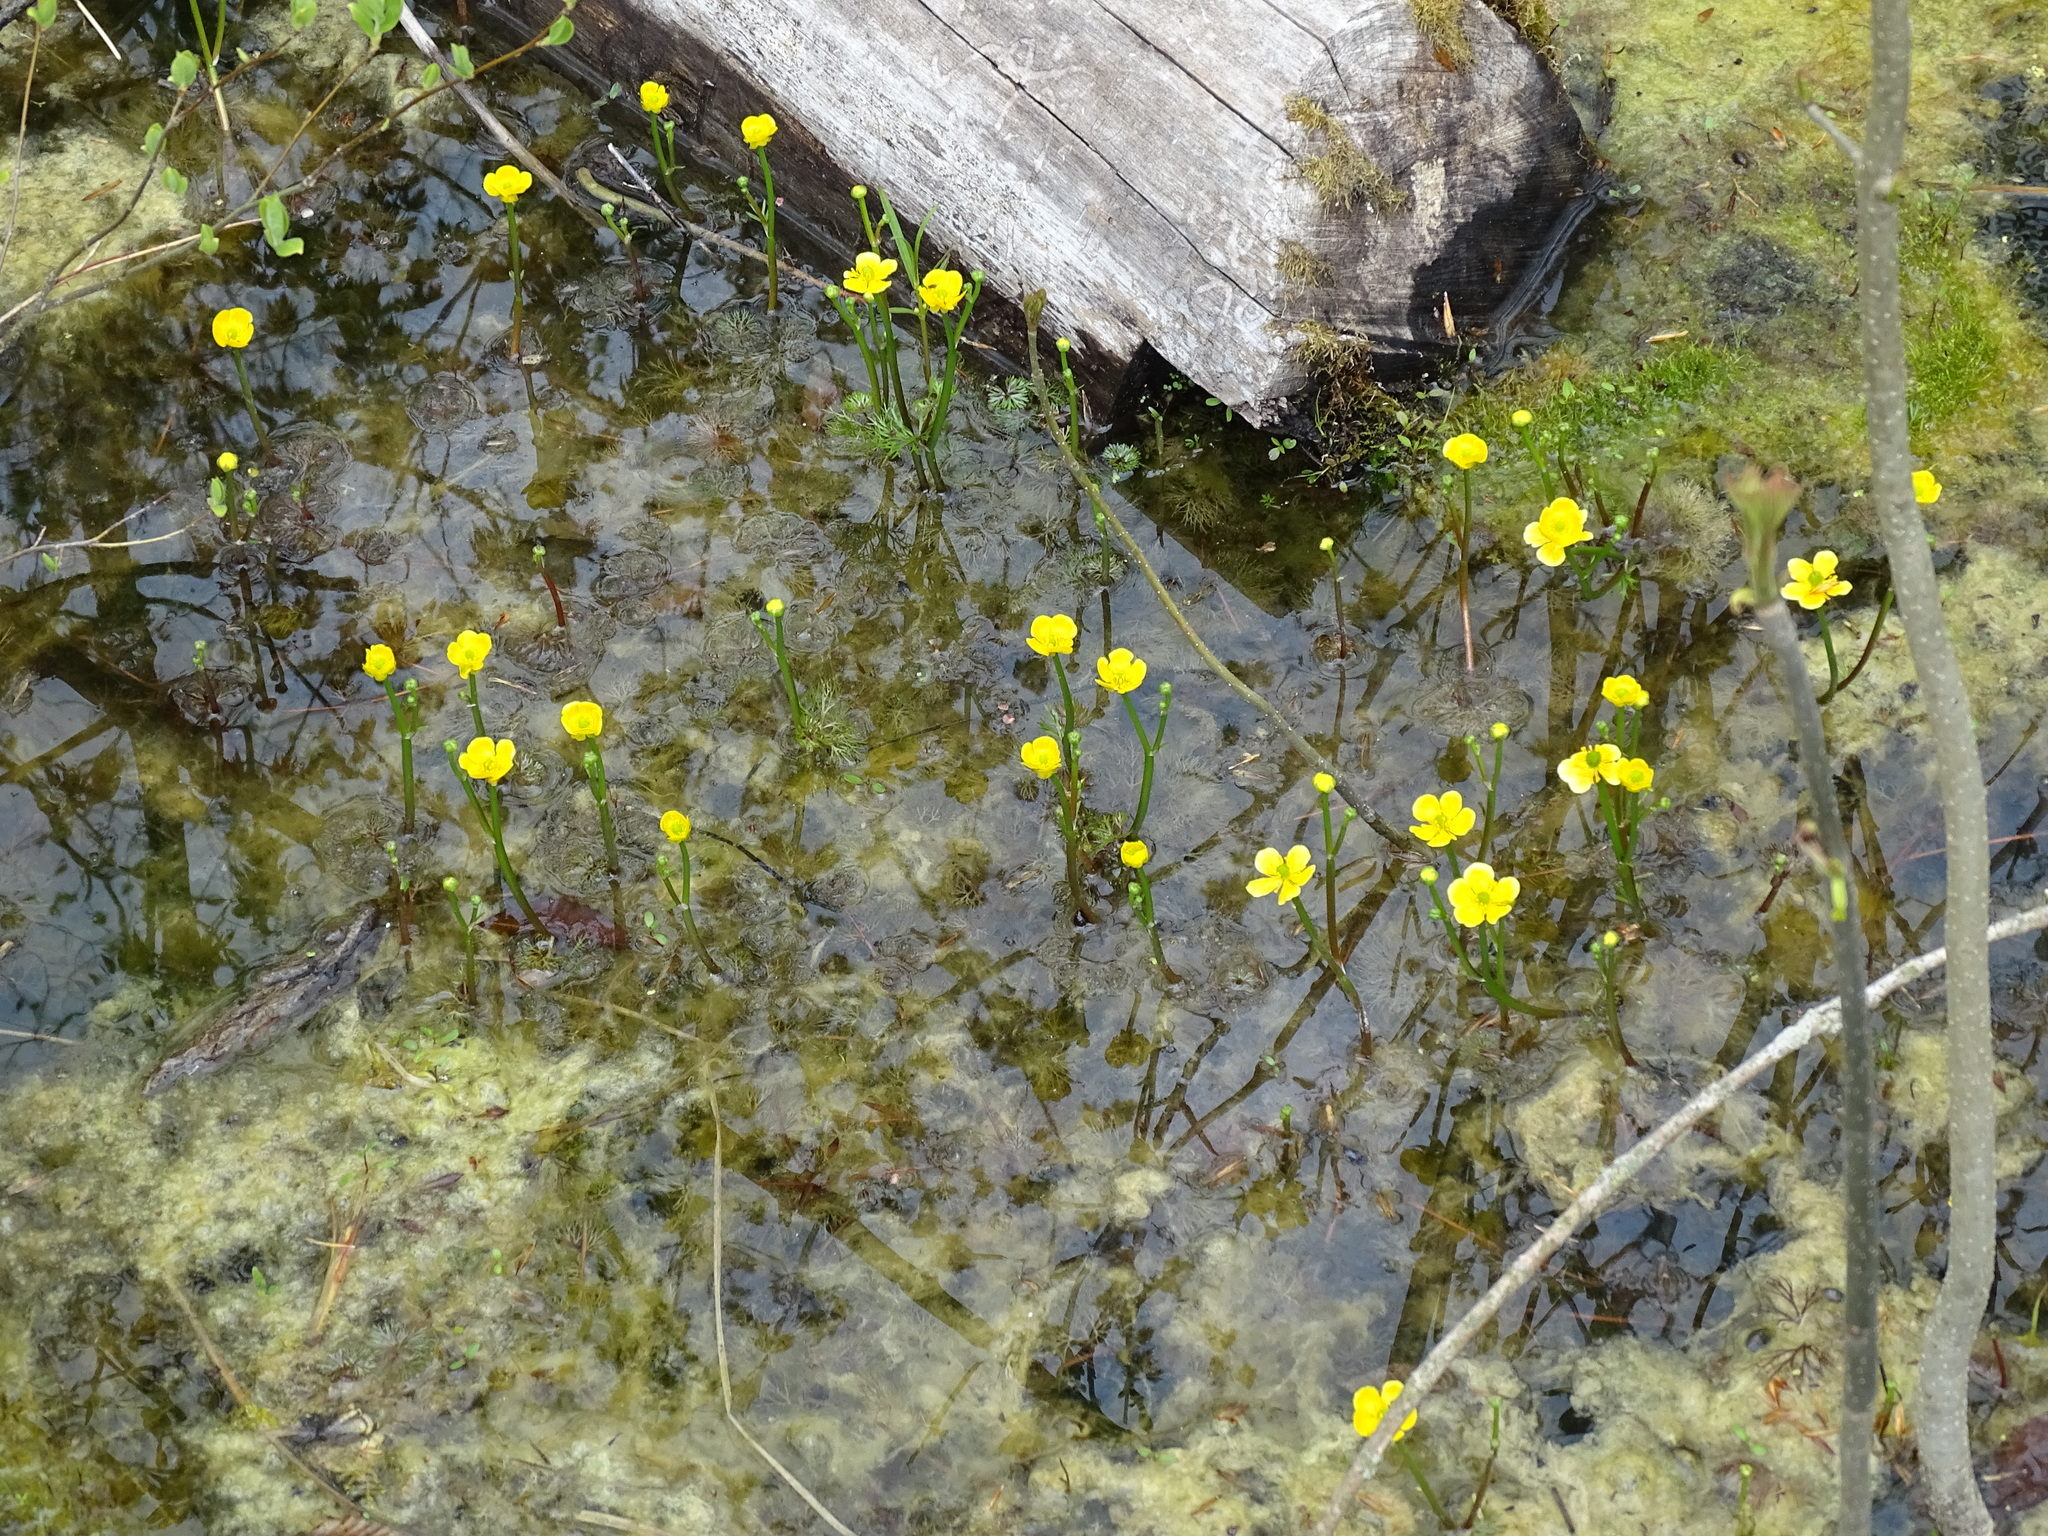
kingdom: Plantae
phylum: Tracheophyta
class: Magnoliopsida
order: Ranunculales
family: Ranunculaceae
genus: Ranunculus
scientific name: Ranunculus flabellaris
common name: Yellow water-crowfoot
